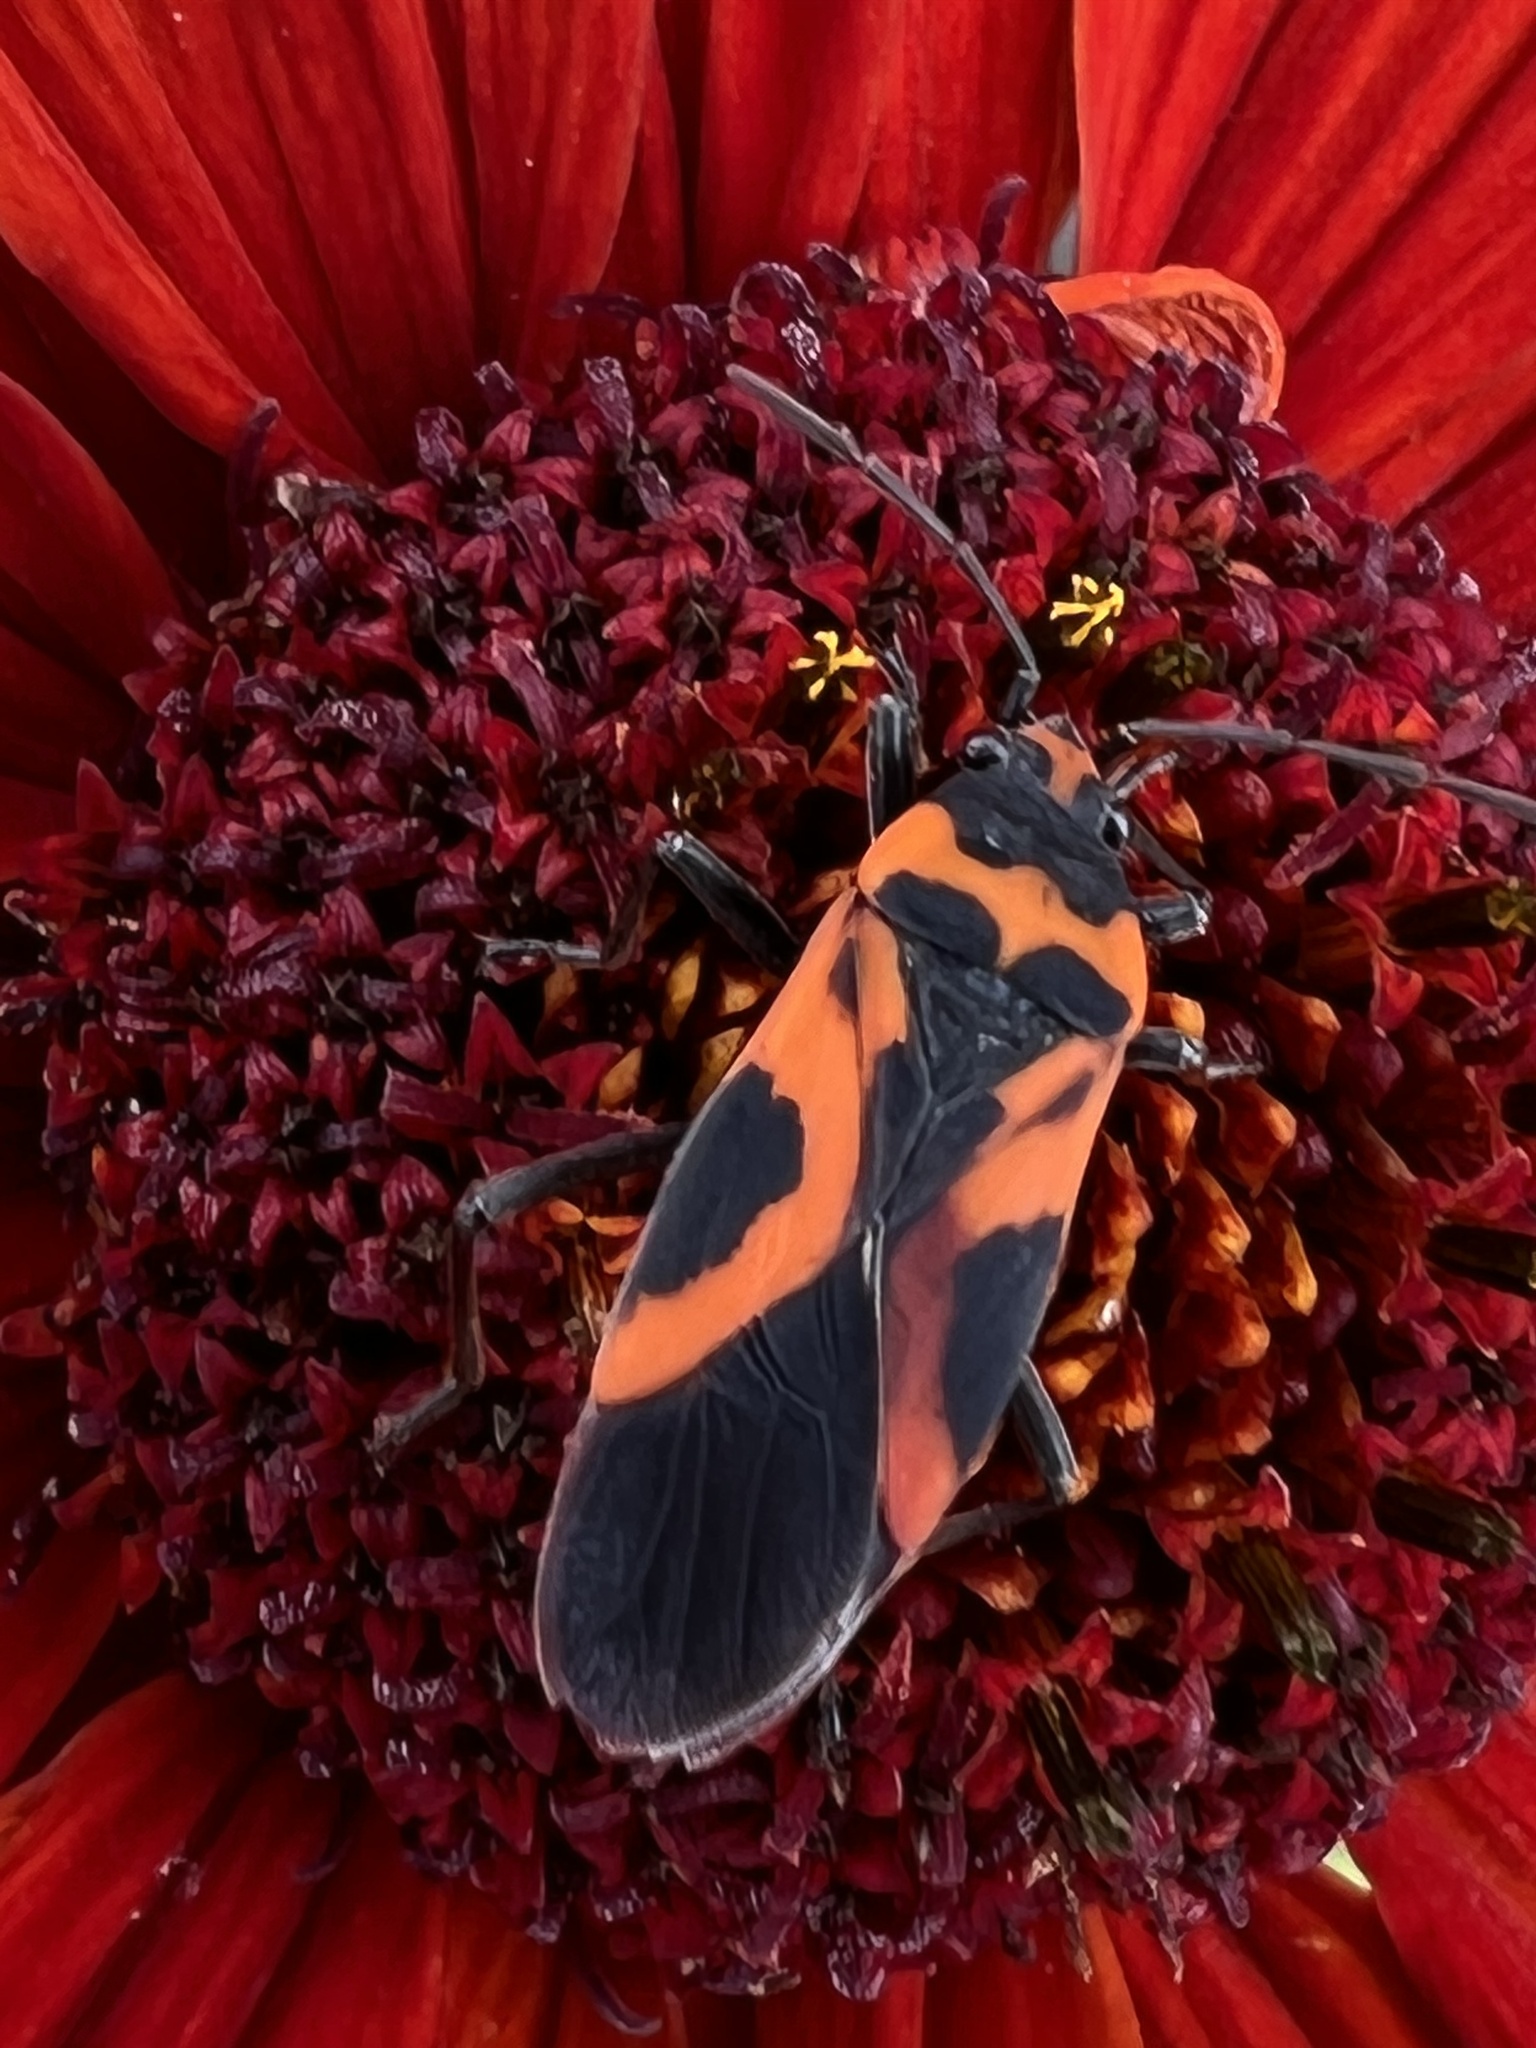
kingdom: Animalia
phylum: Arthropoda
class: Insecta
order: Hemiptera
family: Lygaeidae
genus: Lygaeus
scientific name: Lygaeus turcicus
